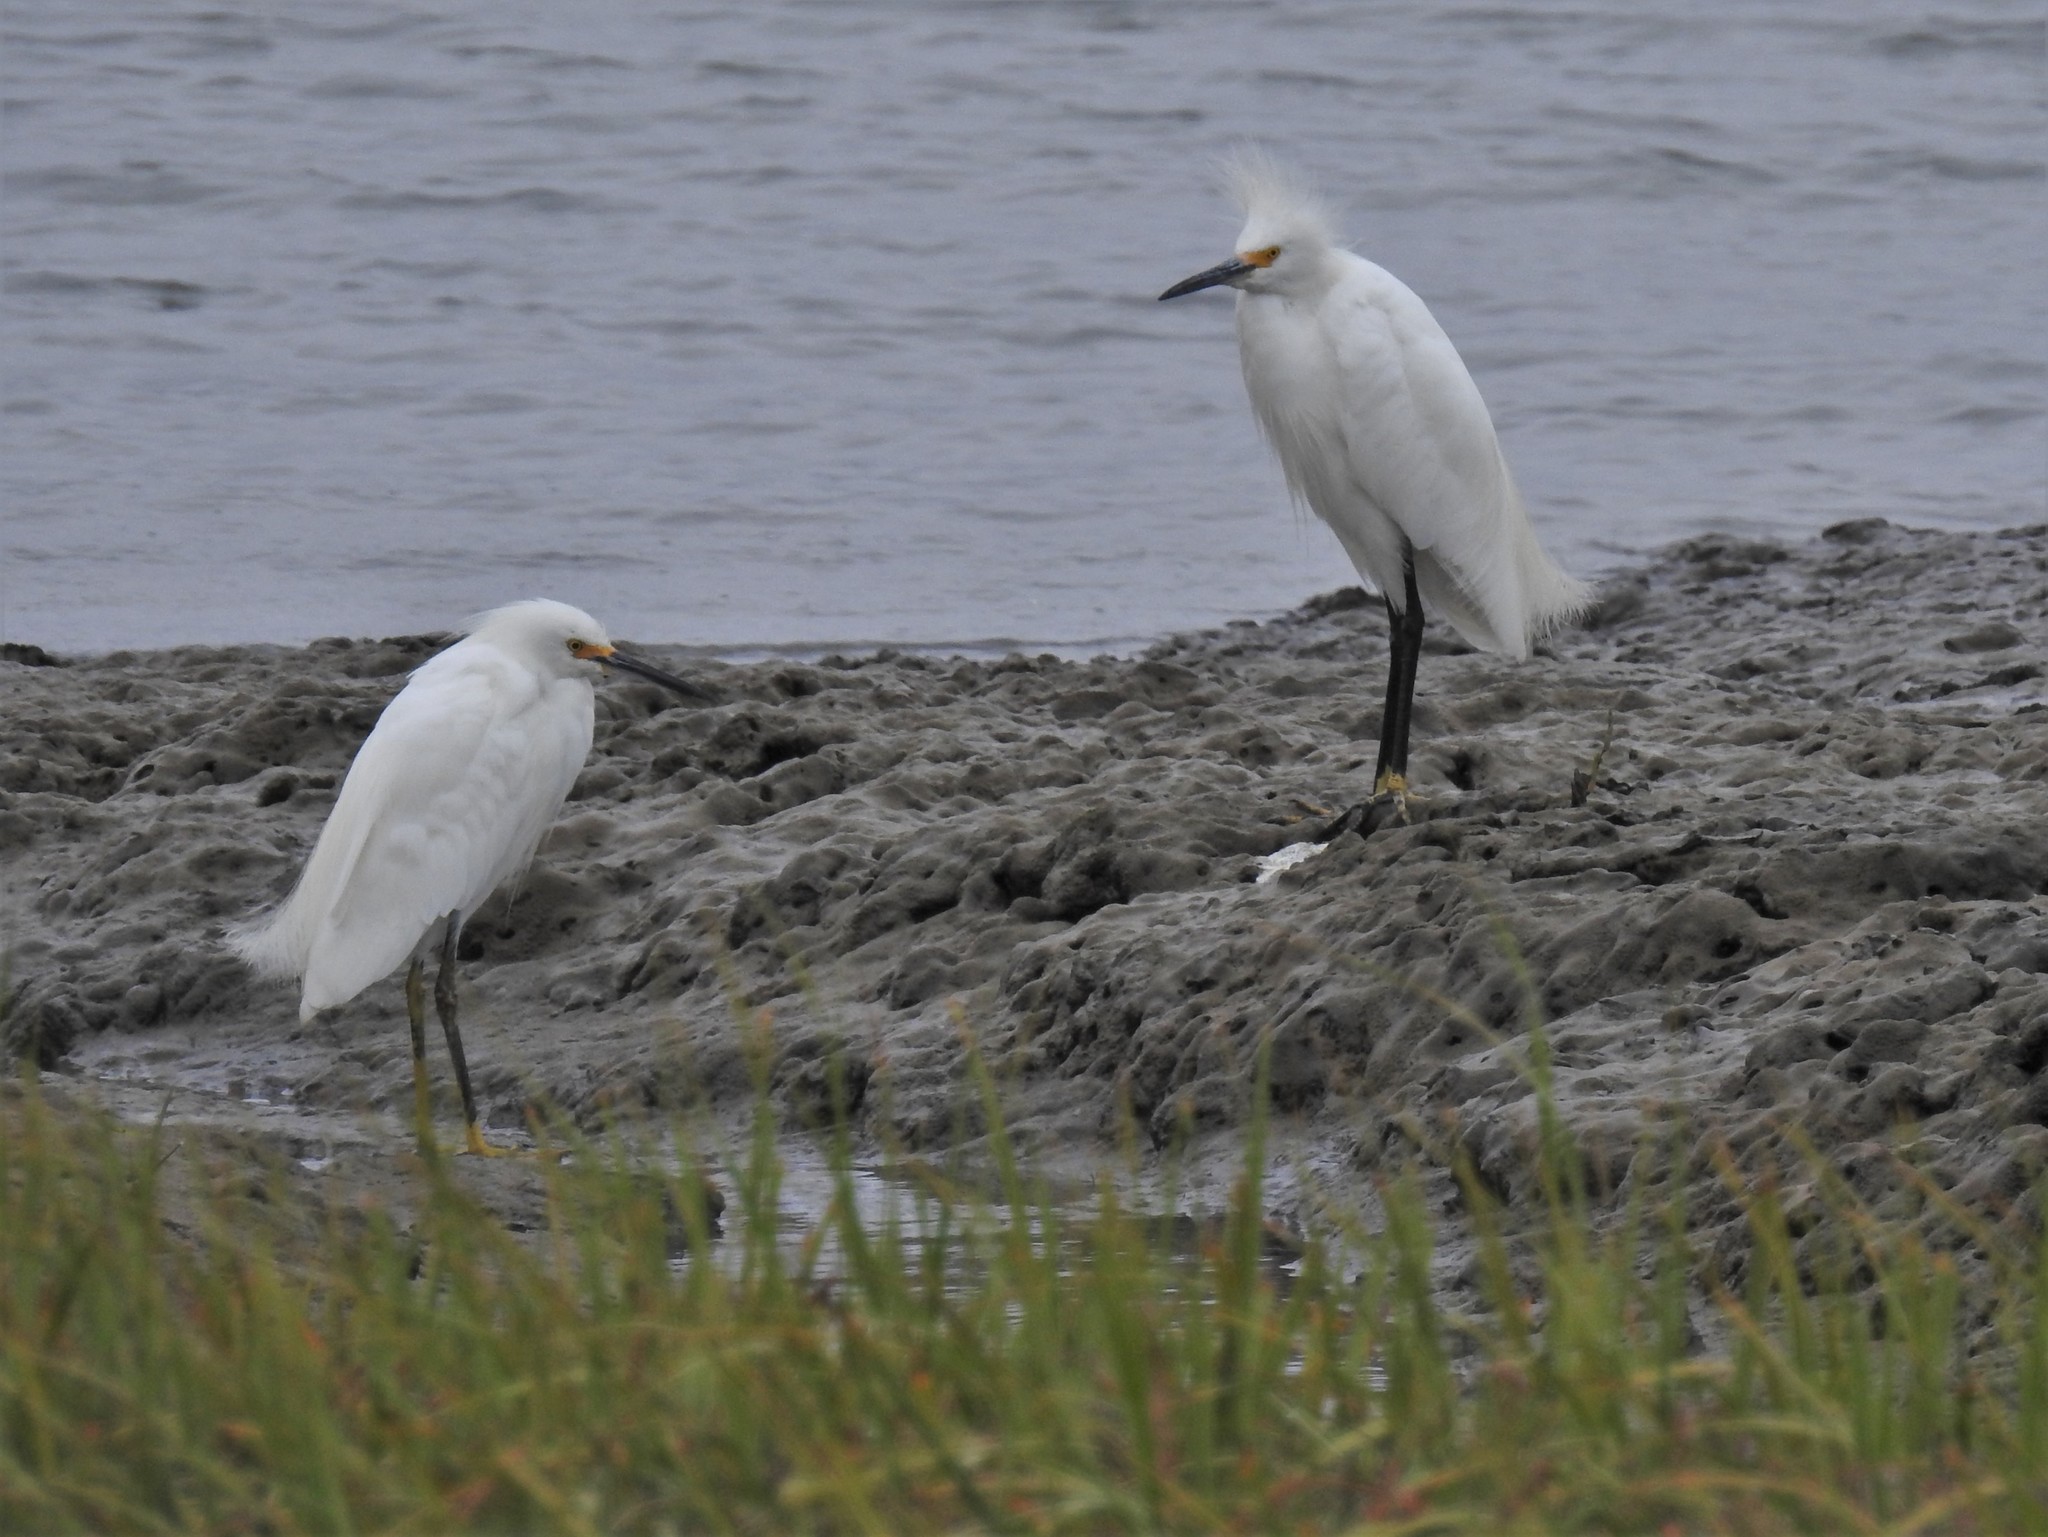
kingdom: Animalia
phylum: Chordata
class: Aves
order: Pelecaniformes
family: Ardeidae
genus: Egretta
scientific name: Egretta thula
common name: Snowy egret
